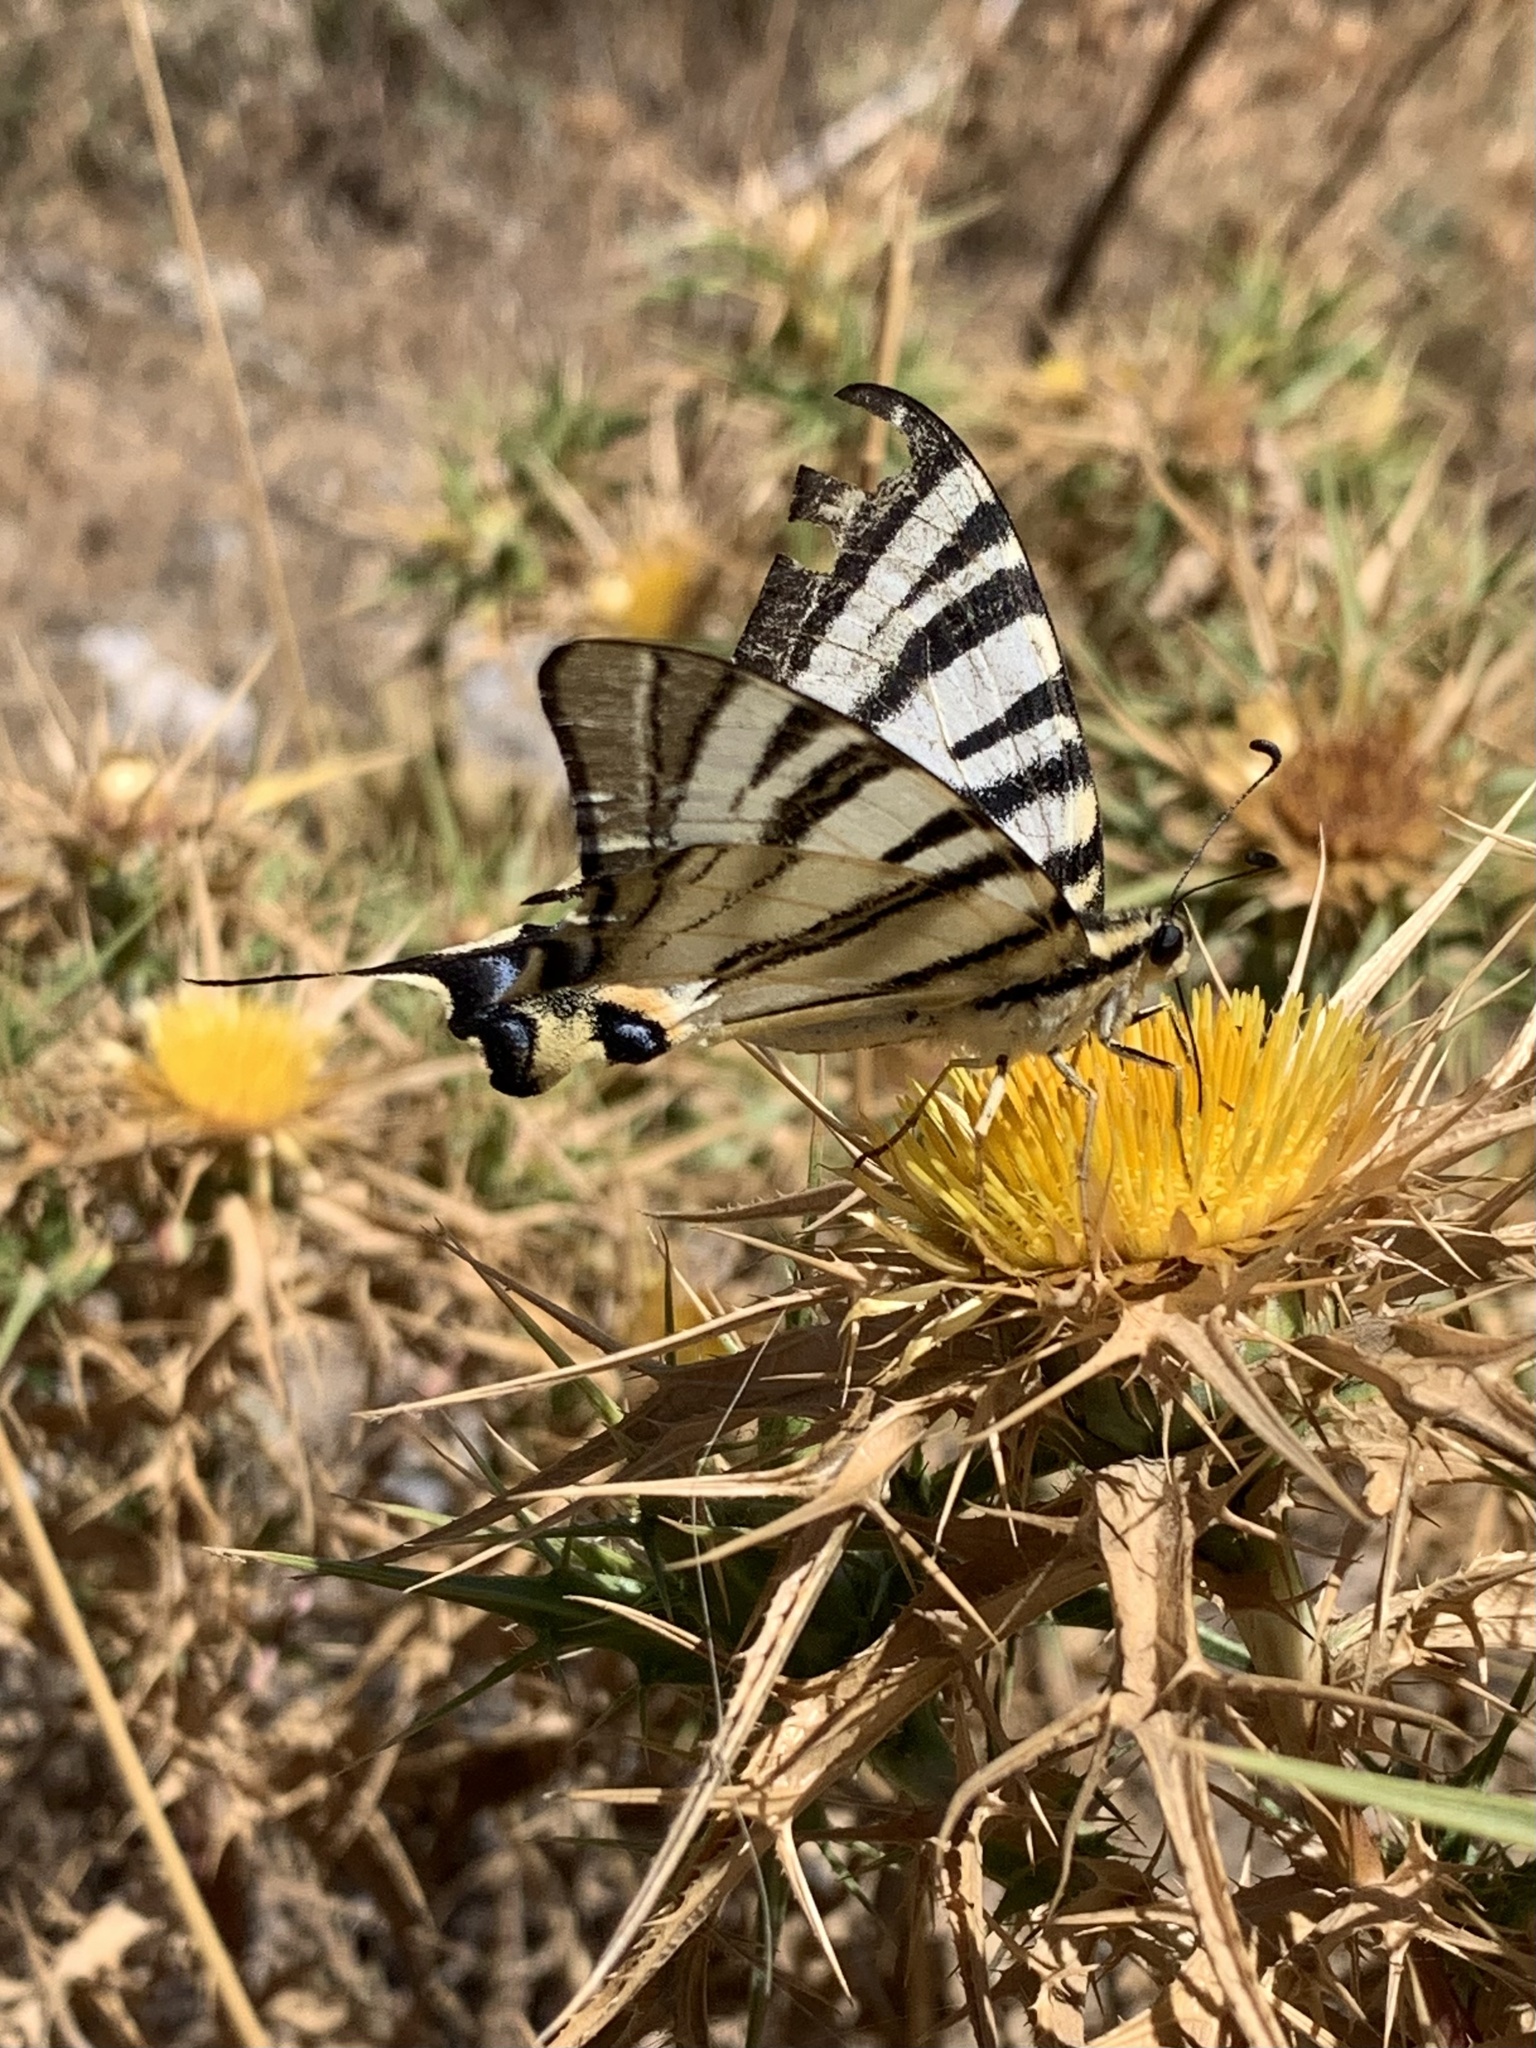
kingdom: Animalia
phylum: Arthropoda
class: Insecta
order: Lepidoptera
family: Papilionidae
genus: Iphiclides
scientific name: Iphiclides podalirius
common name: Scarce swallowtail
